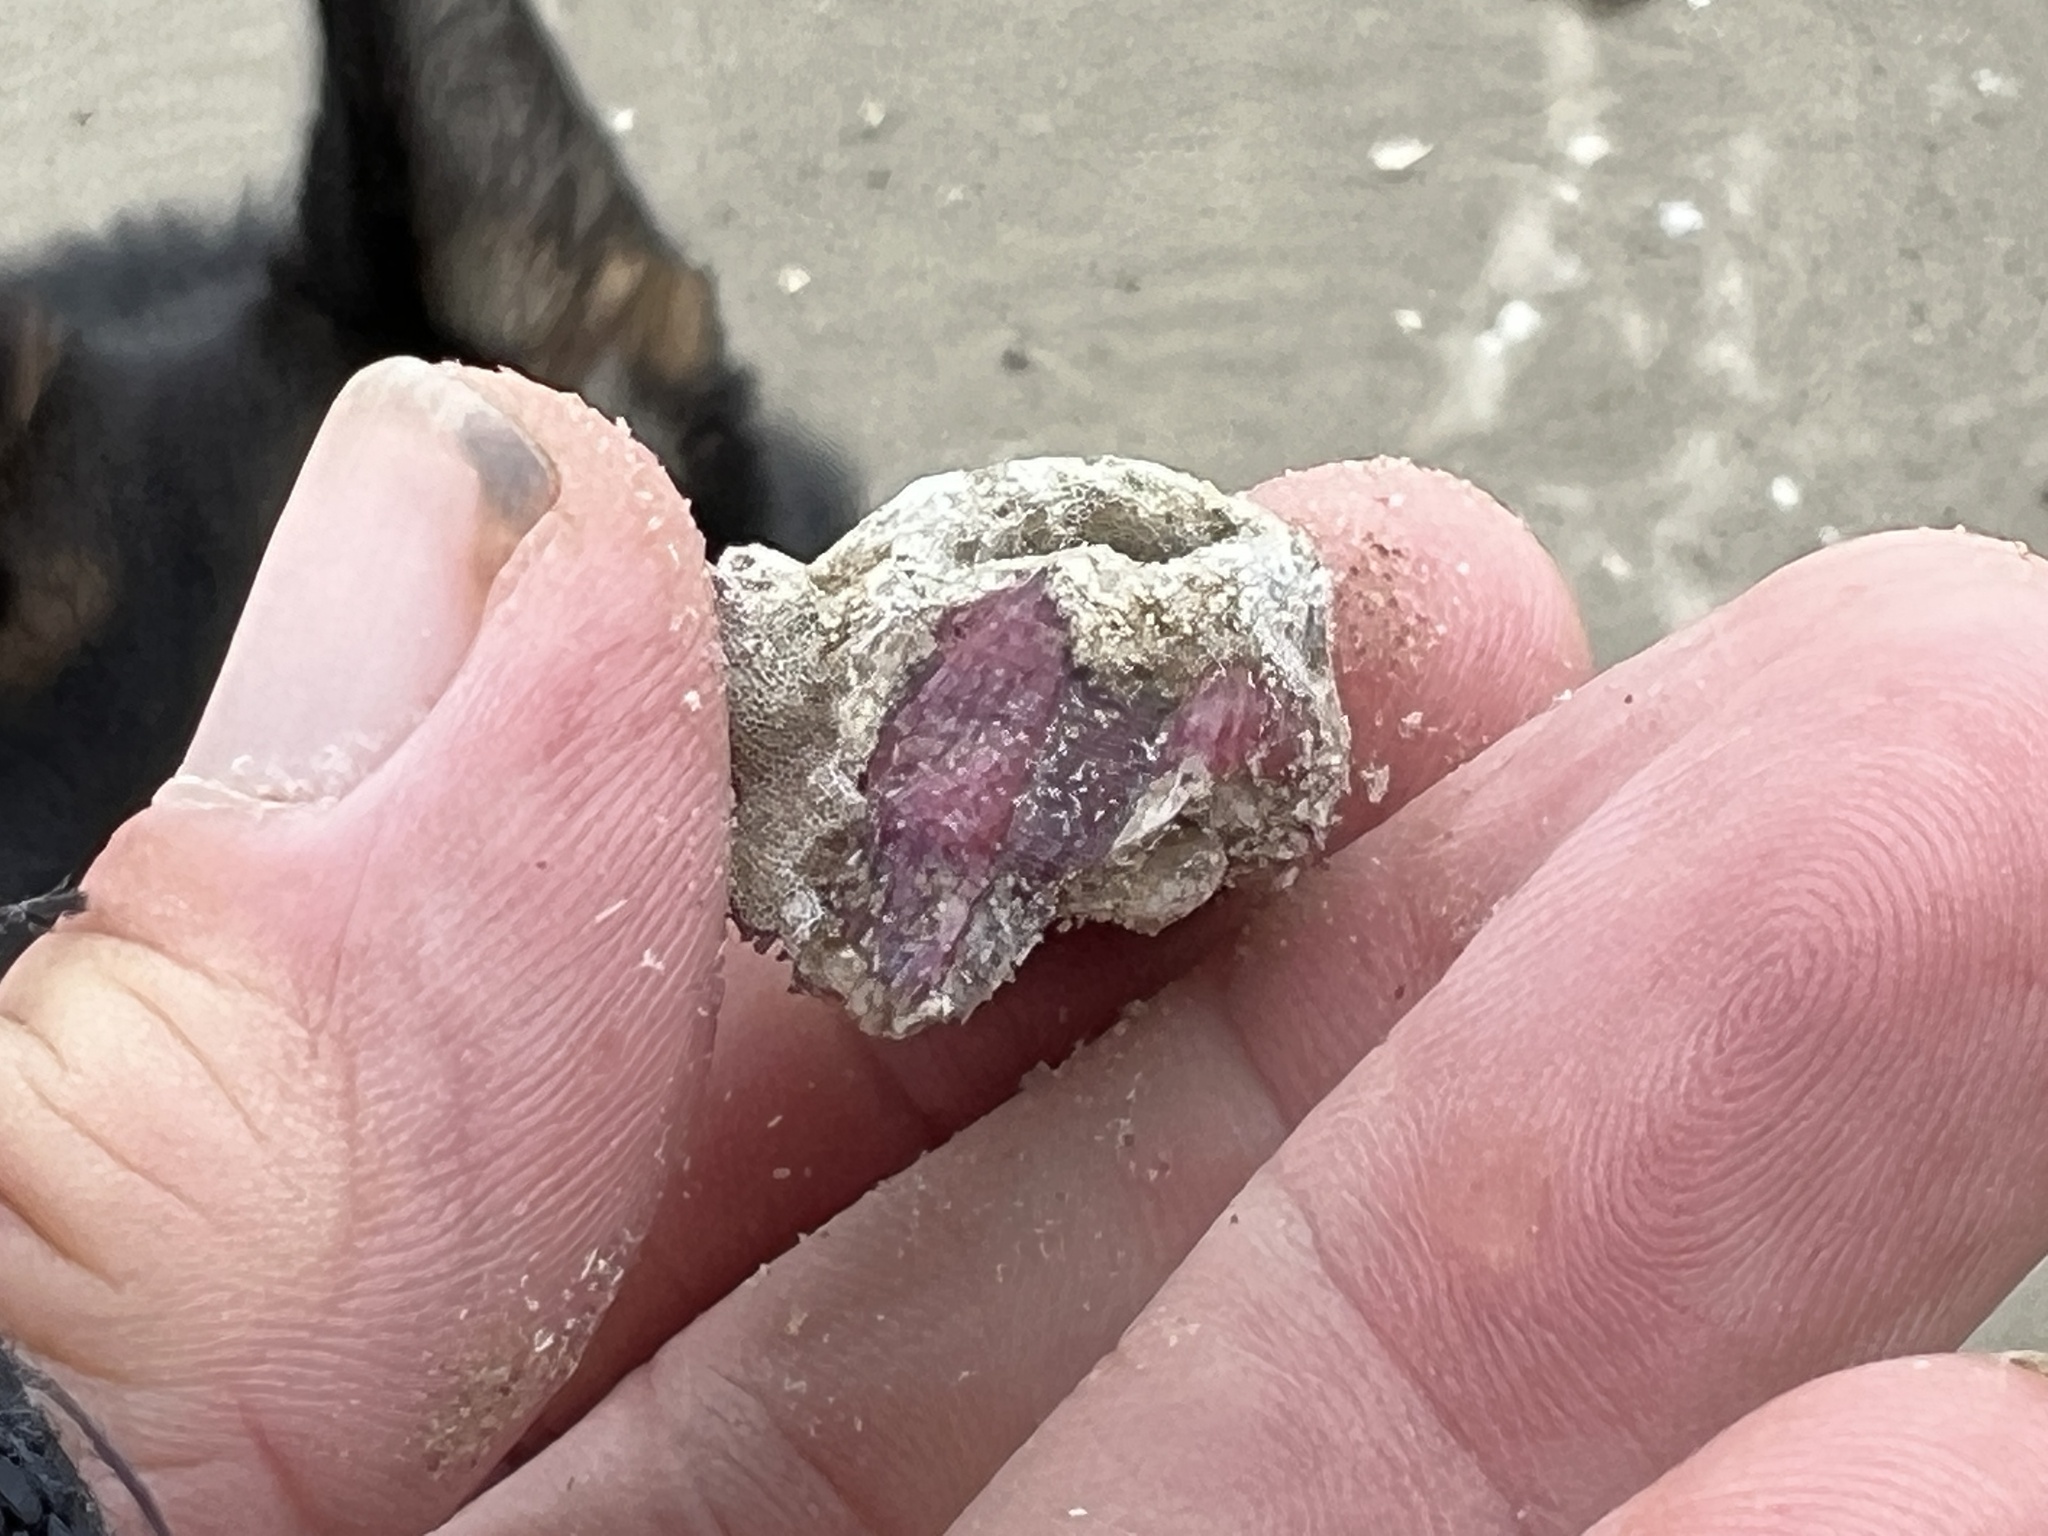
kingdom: Animalia
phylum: Arthropoda
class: Maxillopoda
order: Sessilia
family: Balanidae
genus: Megabalanus
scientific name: Megabalanus tintinnabulum
